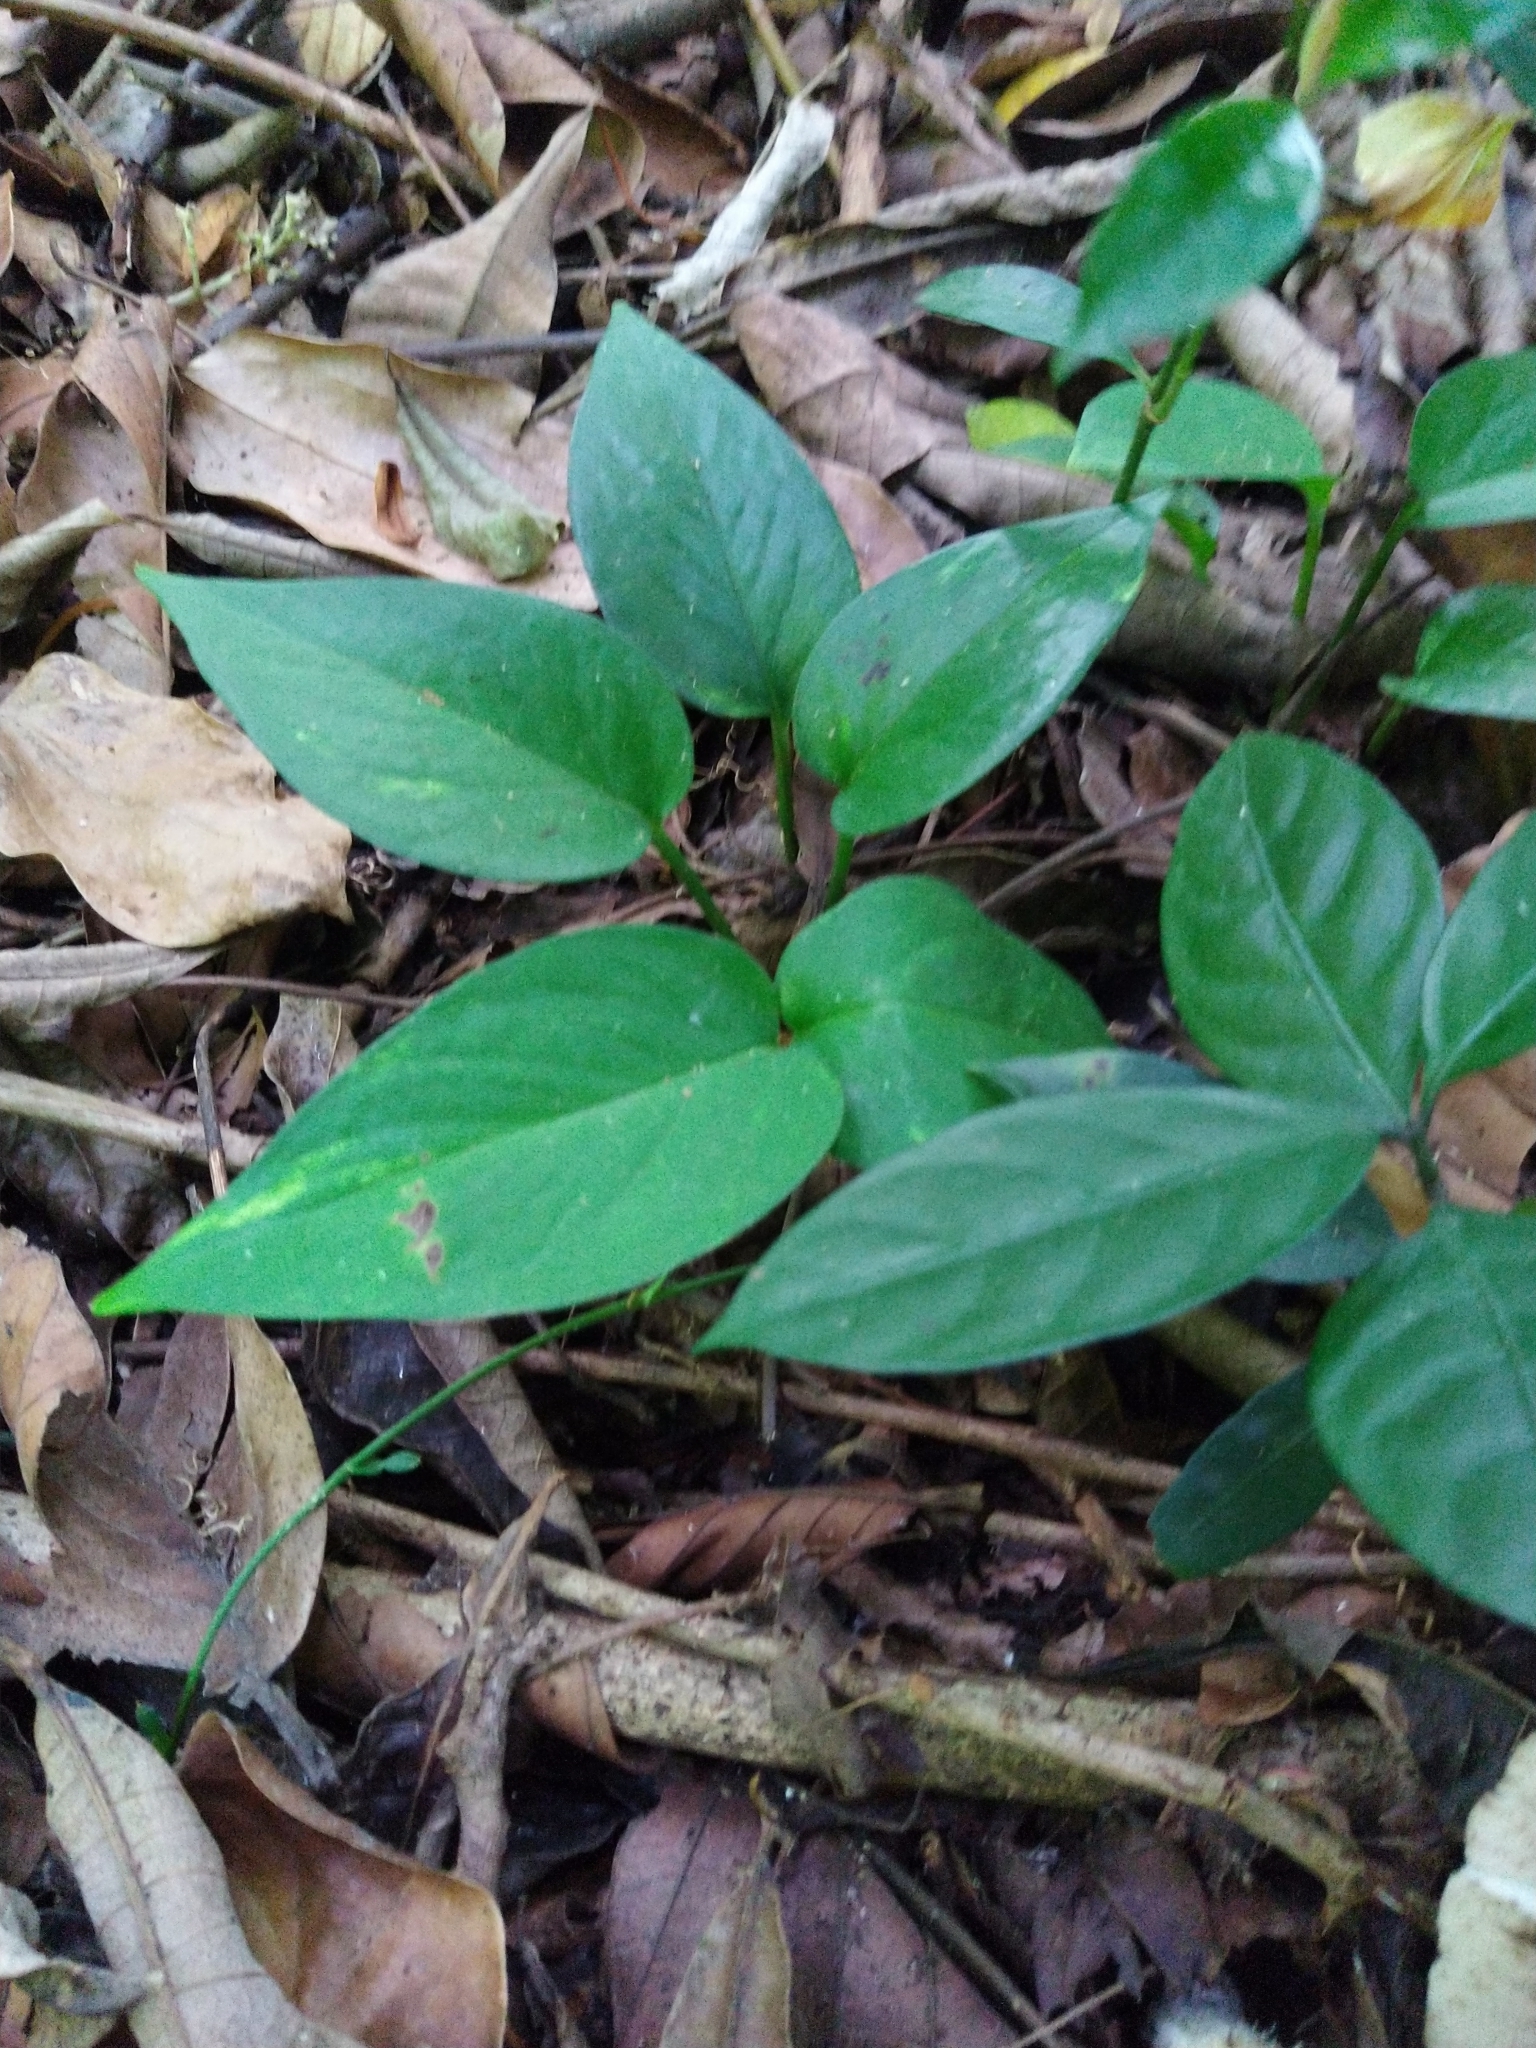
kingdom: Plantae
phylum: Tracheophyta
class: Liliopsida
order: Alismatales
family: Araceae
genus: Epipremnum
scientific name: Epipremnum aureum
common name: Golden hunter's-robe
